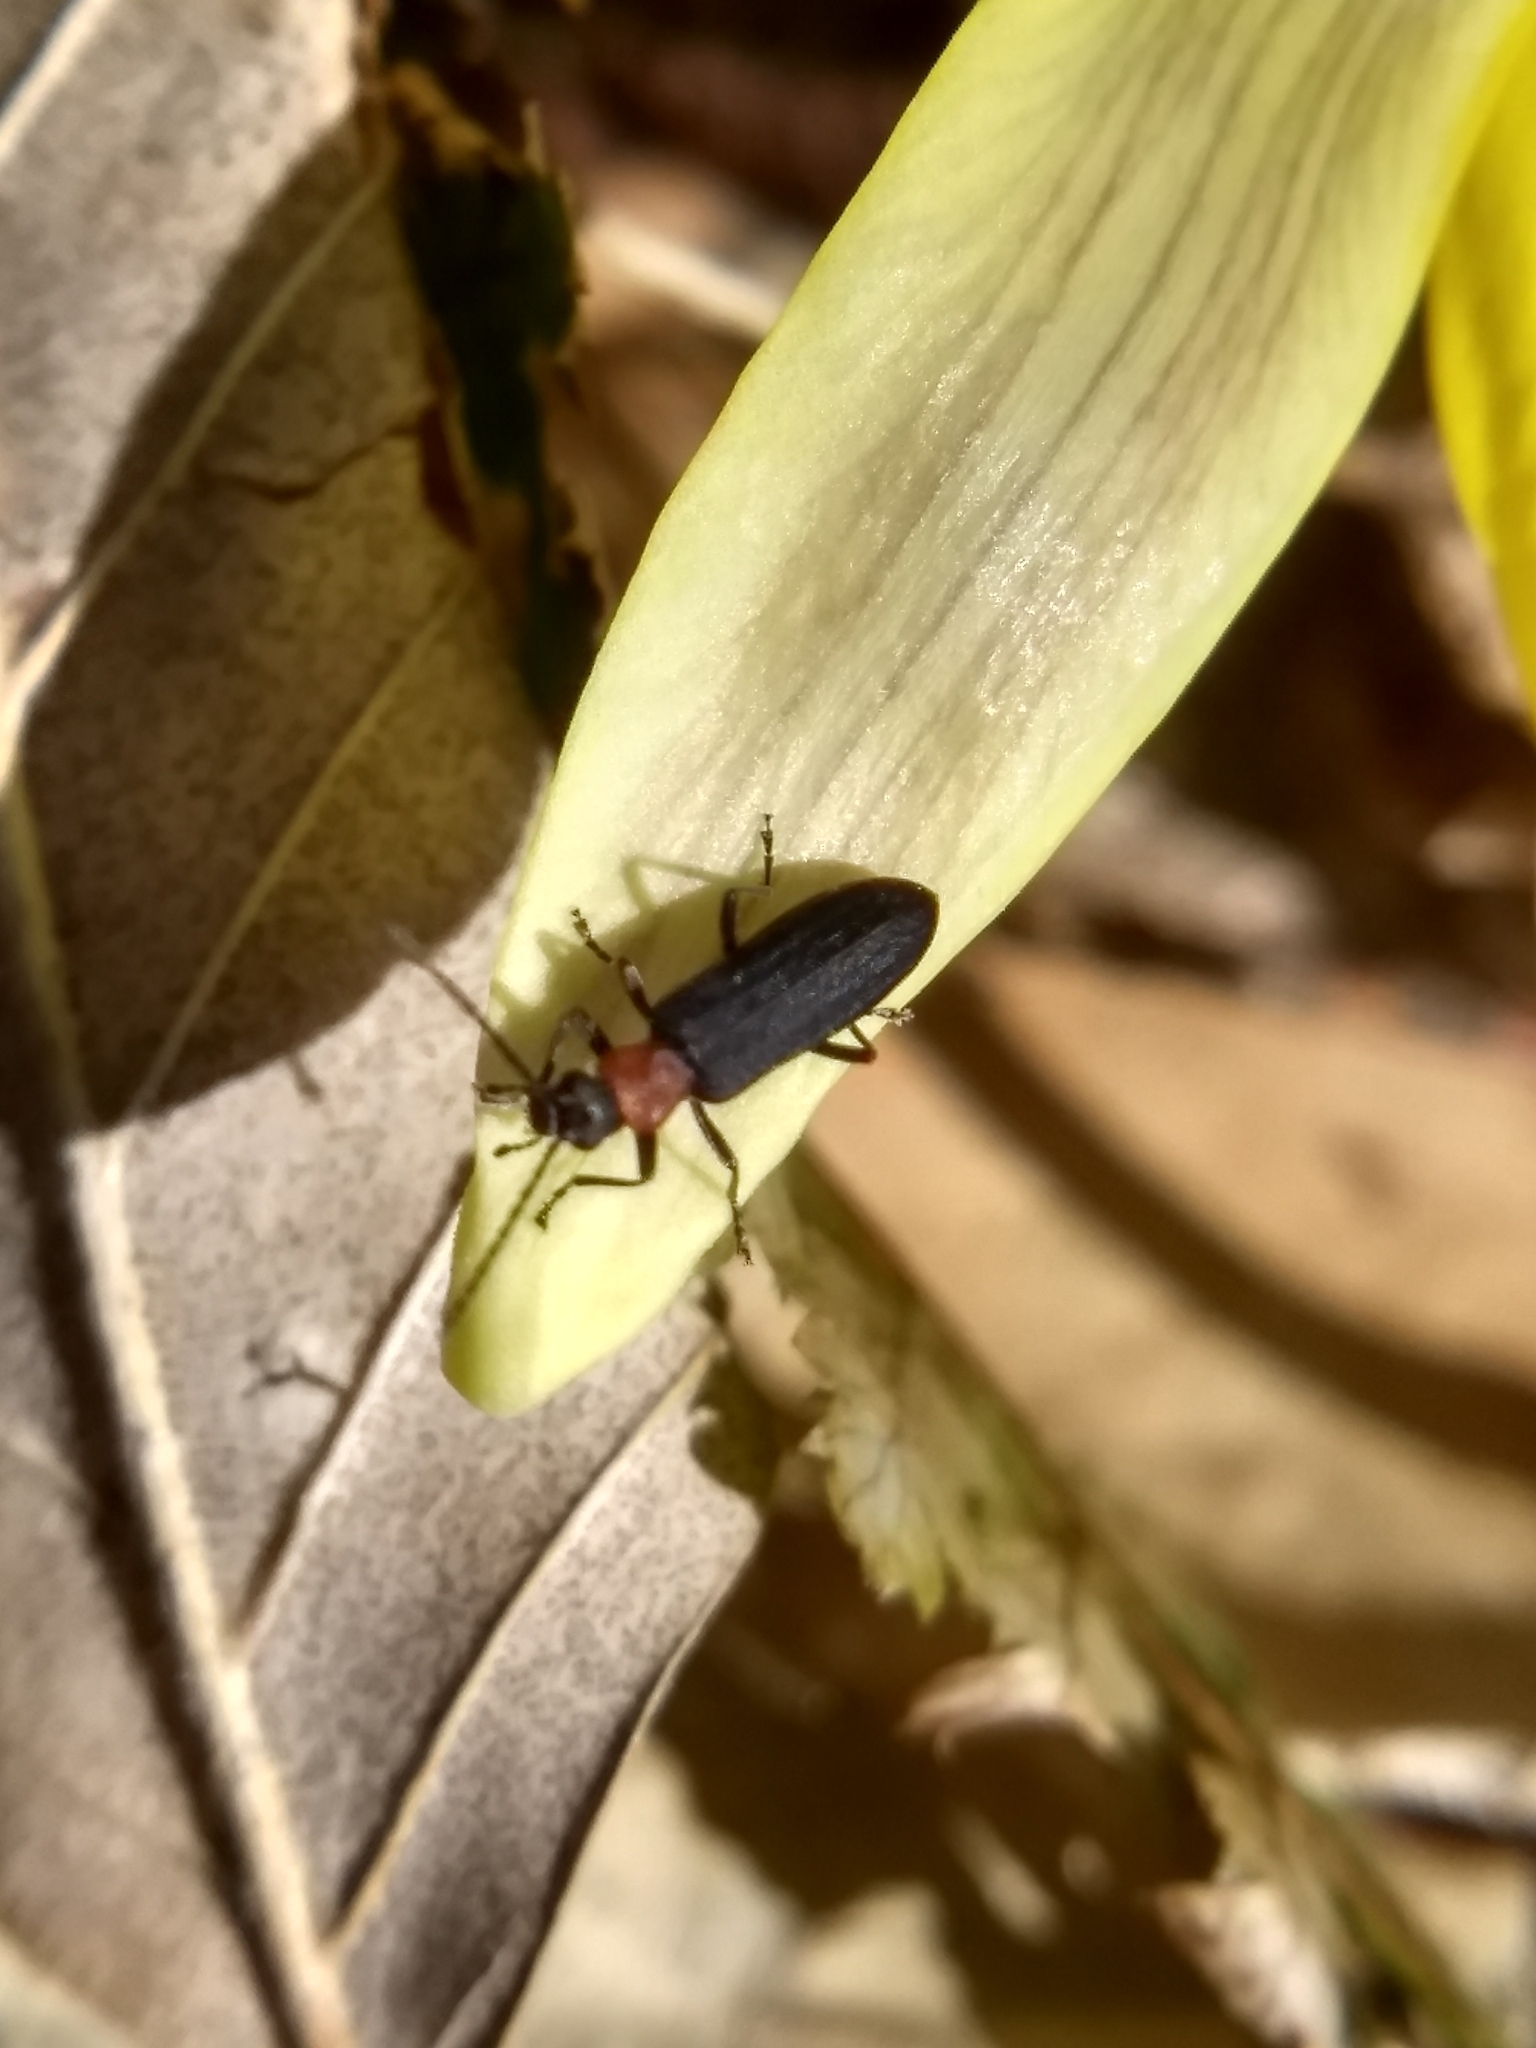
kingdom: Animalia
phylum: Arthropoda
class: Insecta
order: Coleoptera
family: Oedemeridae
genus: Ischnomera
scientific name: Ischnomera
